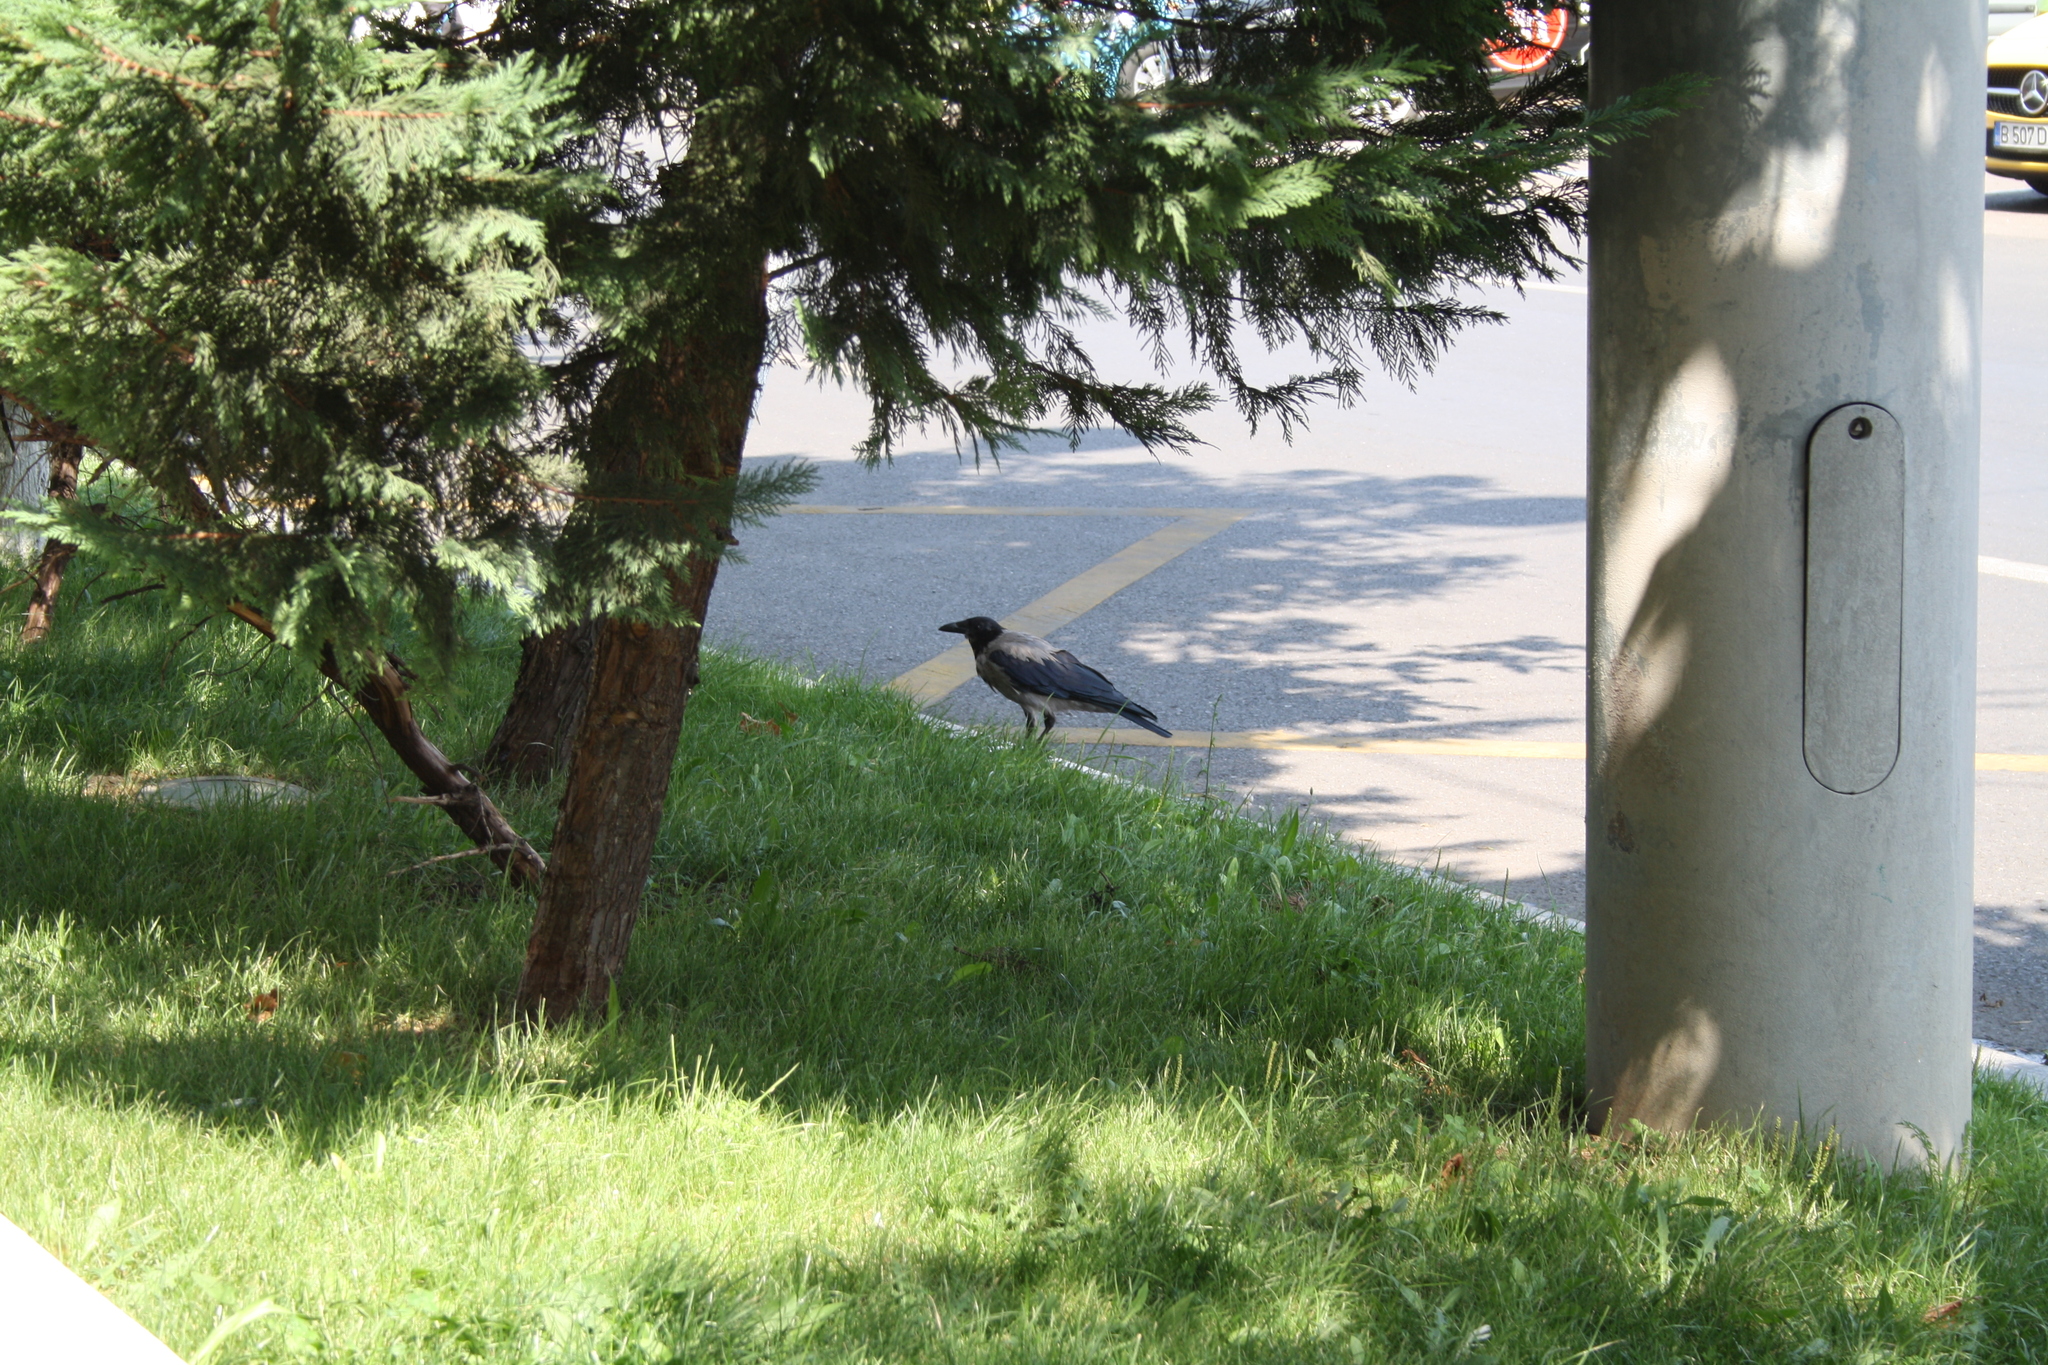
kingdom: Animalia
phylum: Chordata
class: Aves
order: Passeriformes
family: Corvidae
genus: Corvus
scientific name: Corvus cornix
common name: Hooded crow
